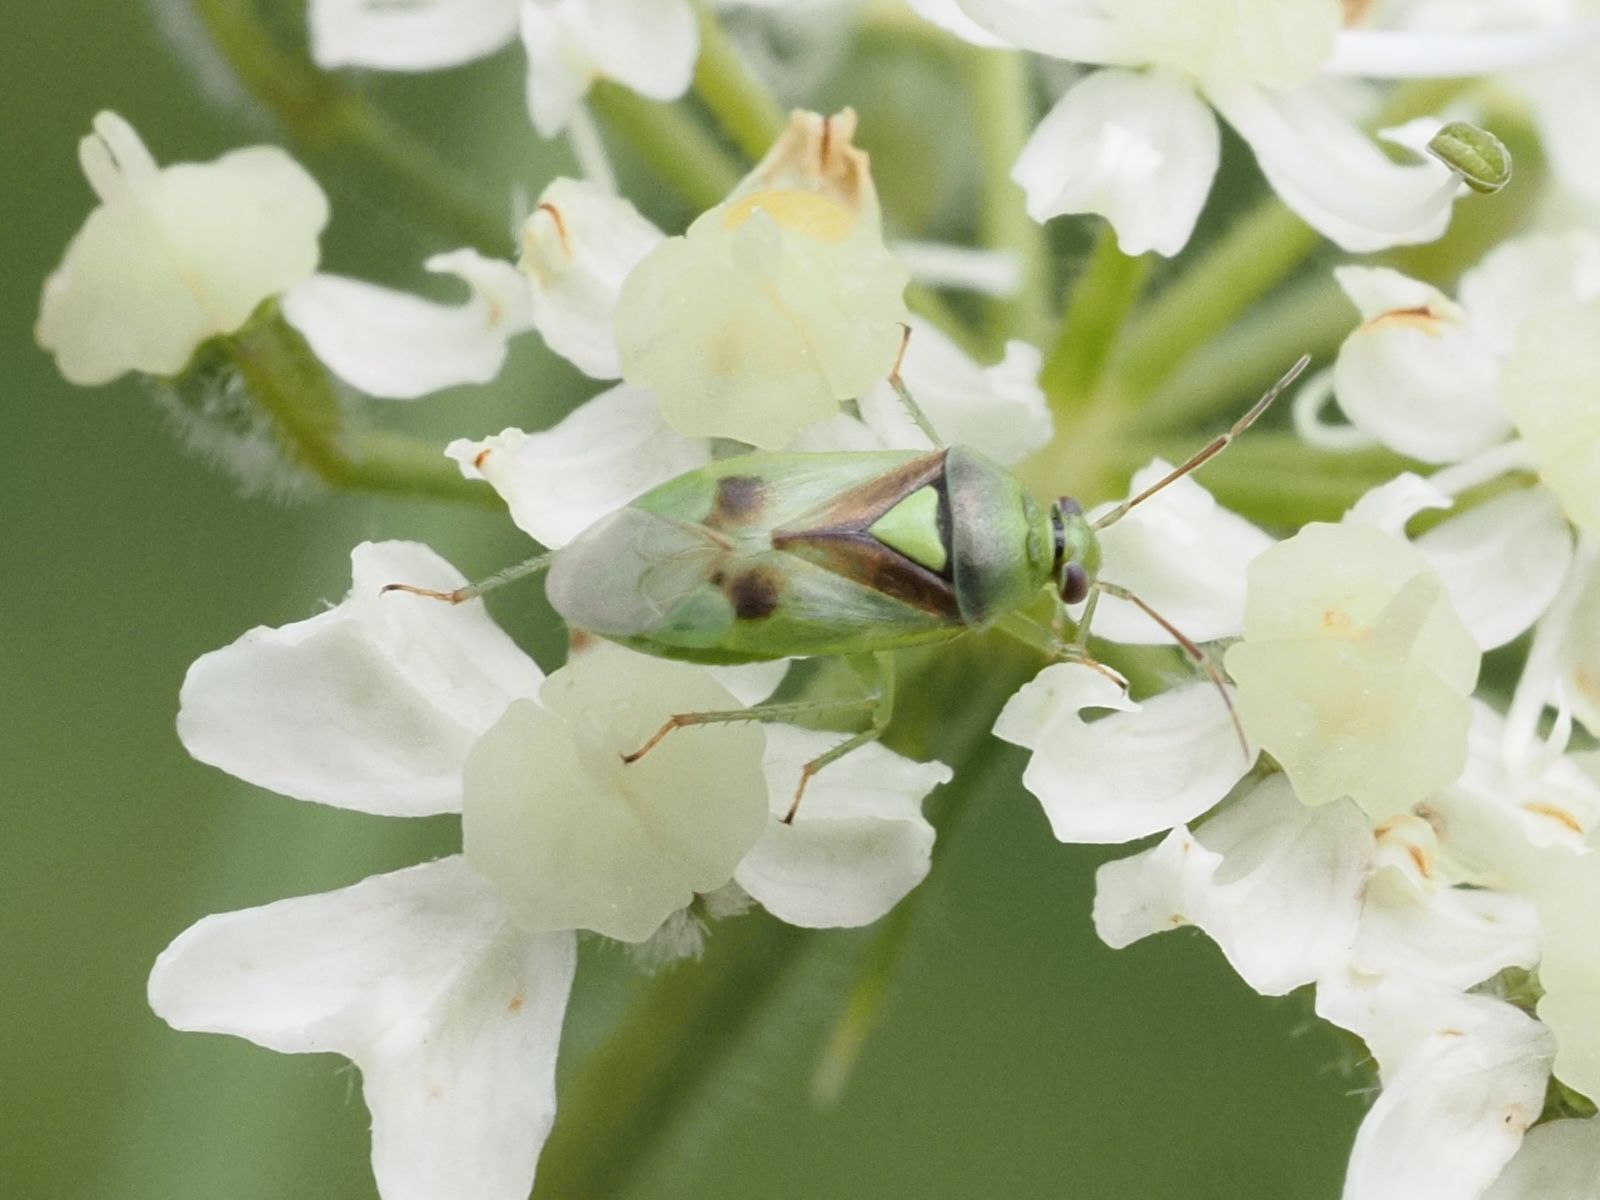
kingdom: Animalia
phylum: Arthropoda
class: Insecta
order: Hemiptera
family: Miridae
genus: Orthops
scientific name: Orthops campestris
